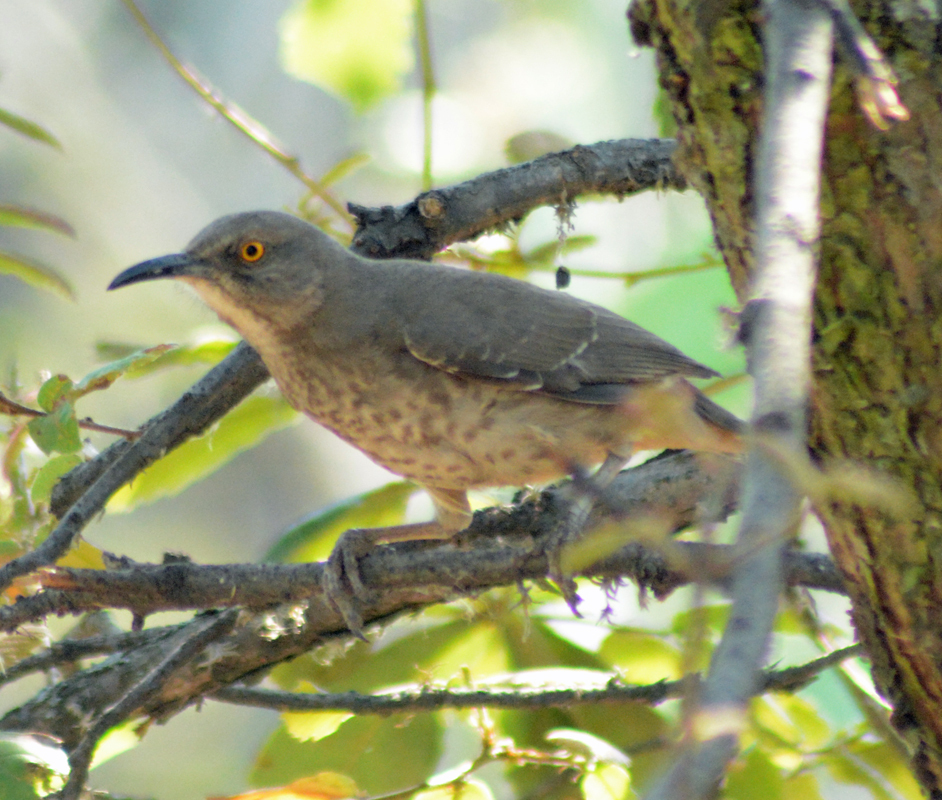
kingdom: Animalia
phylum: Chordata
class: Aves
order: Passeriformes
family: Mimidae
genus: Toxostoma
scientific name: Toxostoma curvirostre
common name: Curve-billed thrasher
